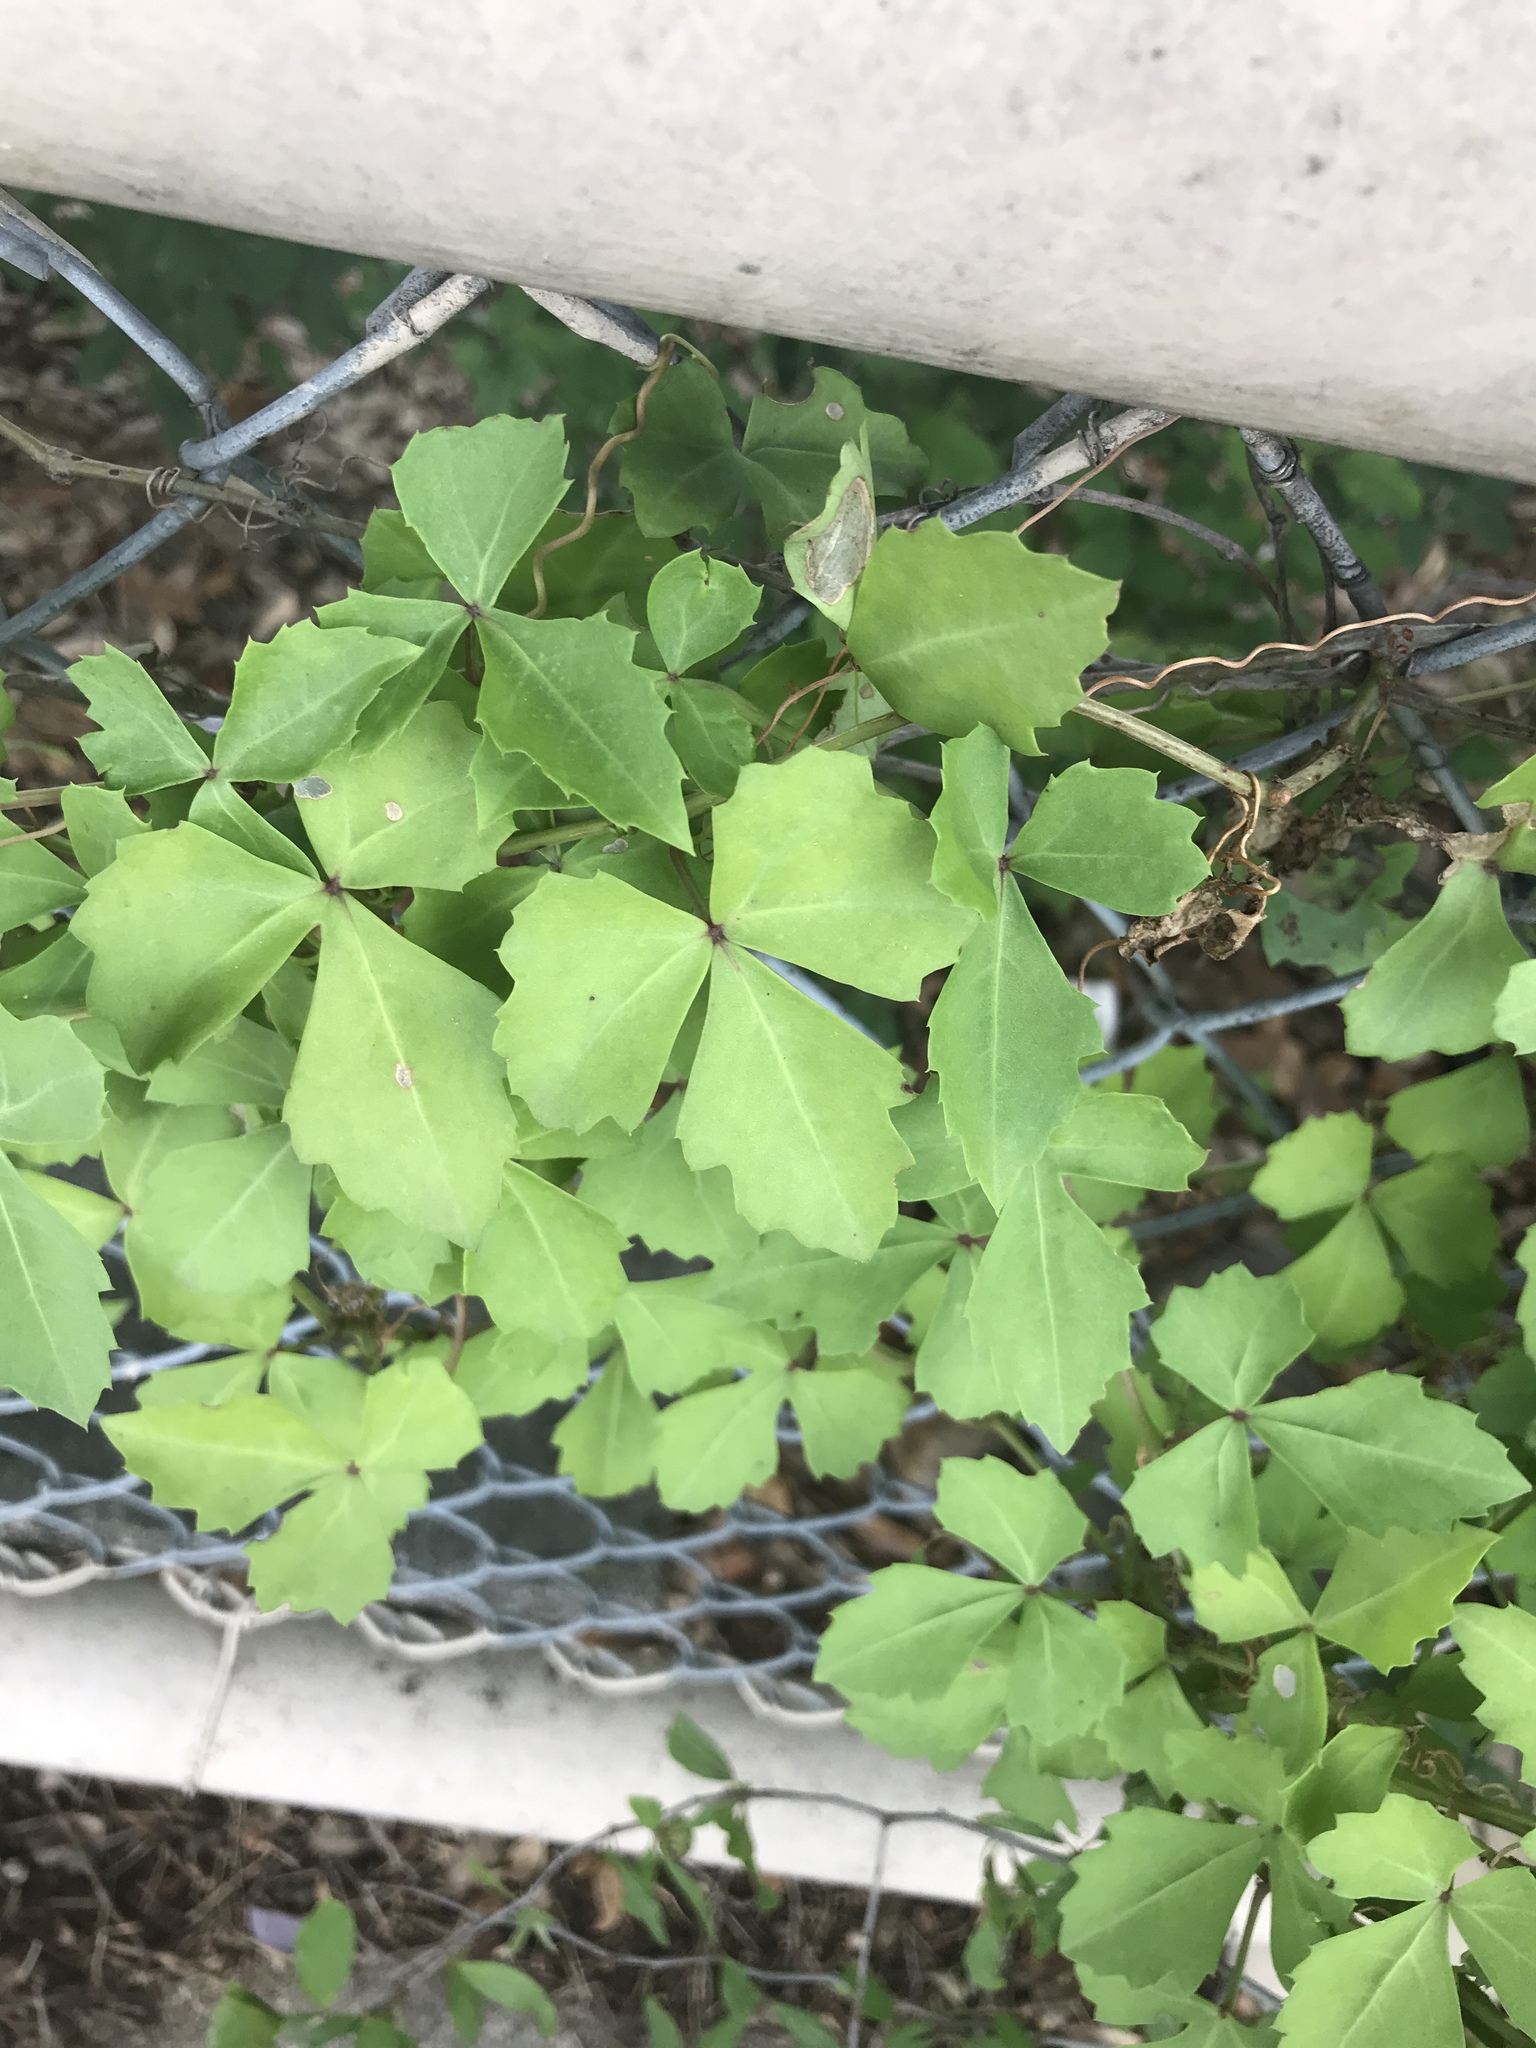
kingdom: Plantae
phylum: Tracheophyta
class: Magnoliopsida
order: Vitales
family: Vitaceae
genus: Cissus
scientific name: Cissus trifoliata
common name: Vine-sorrel
